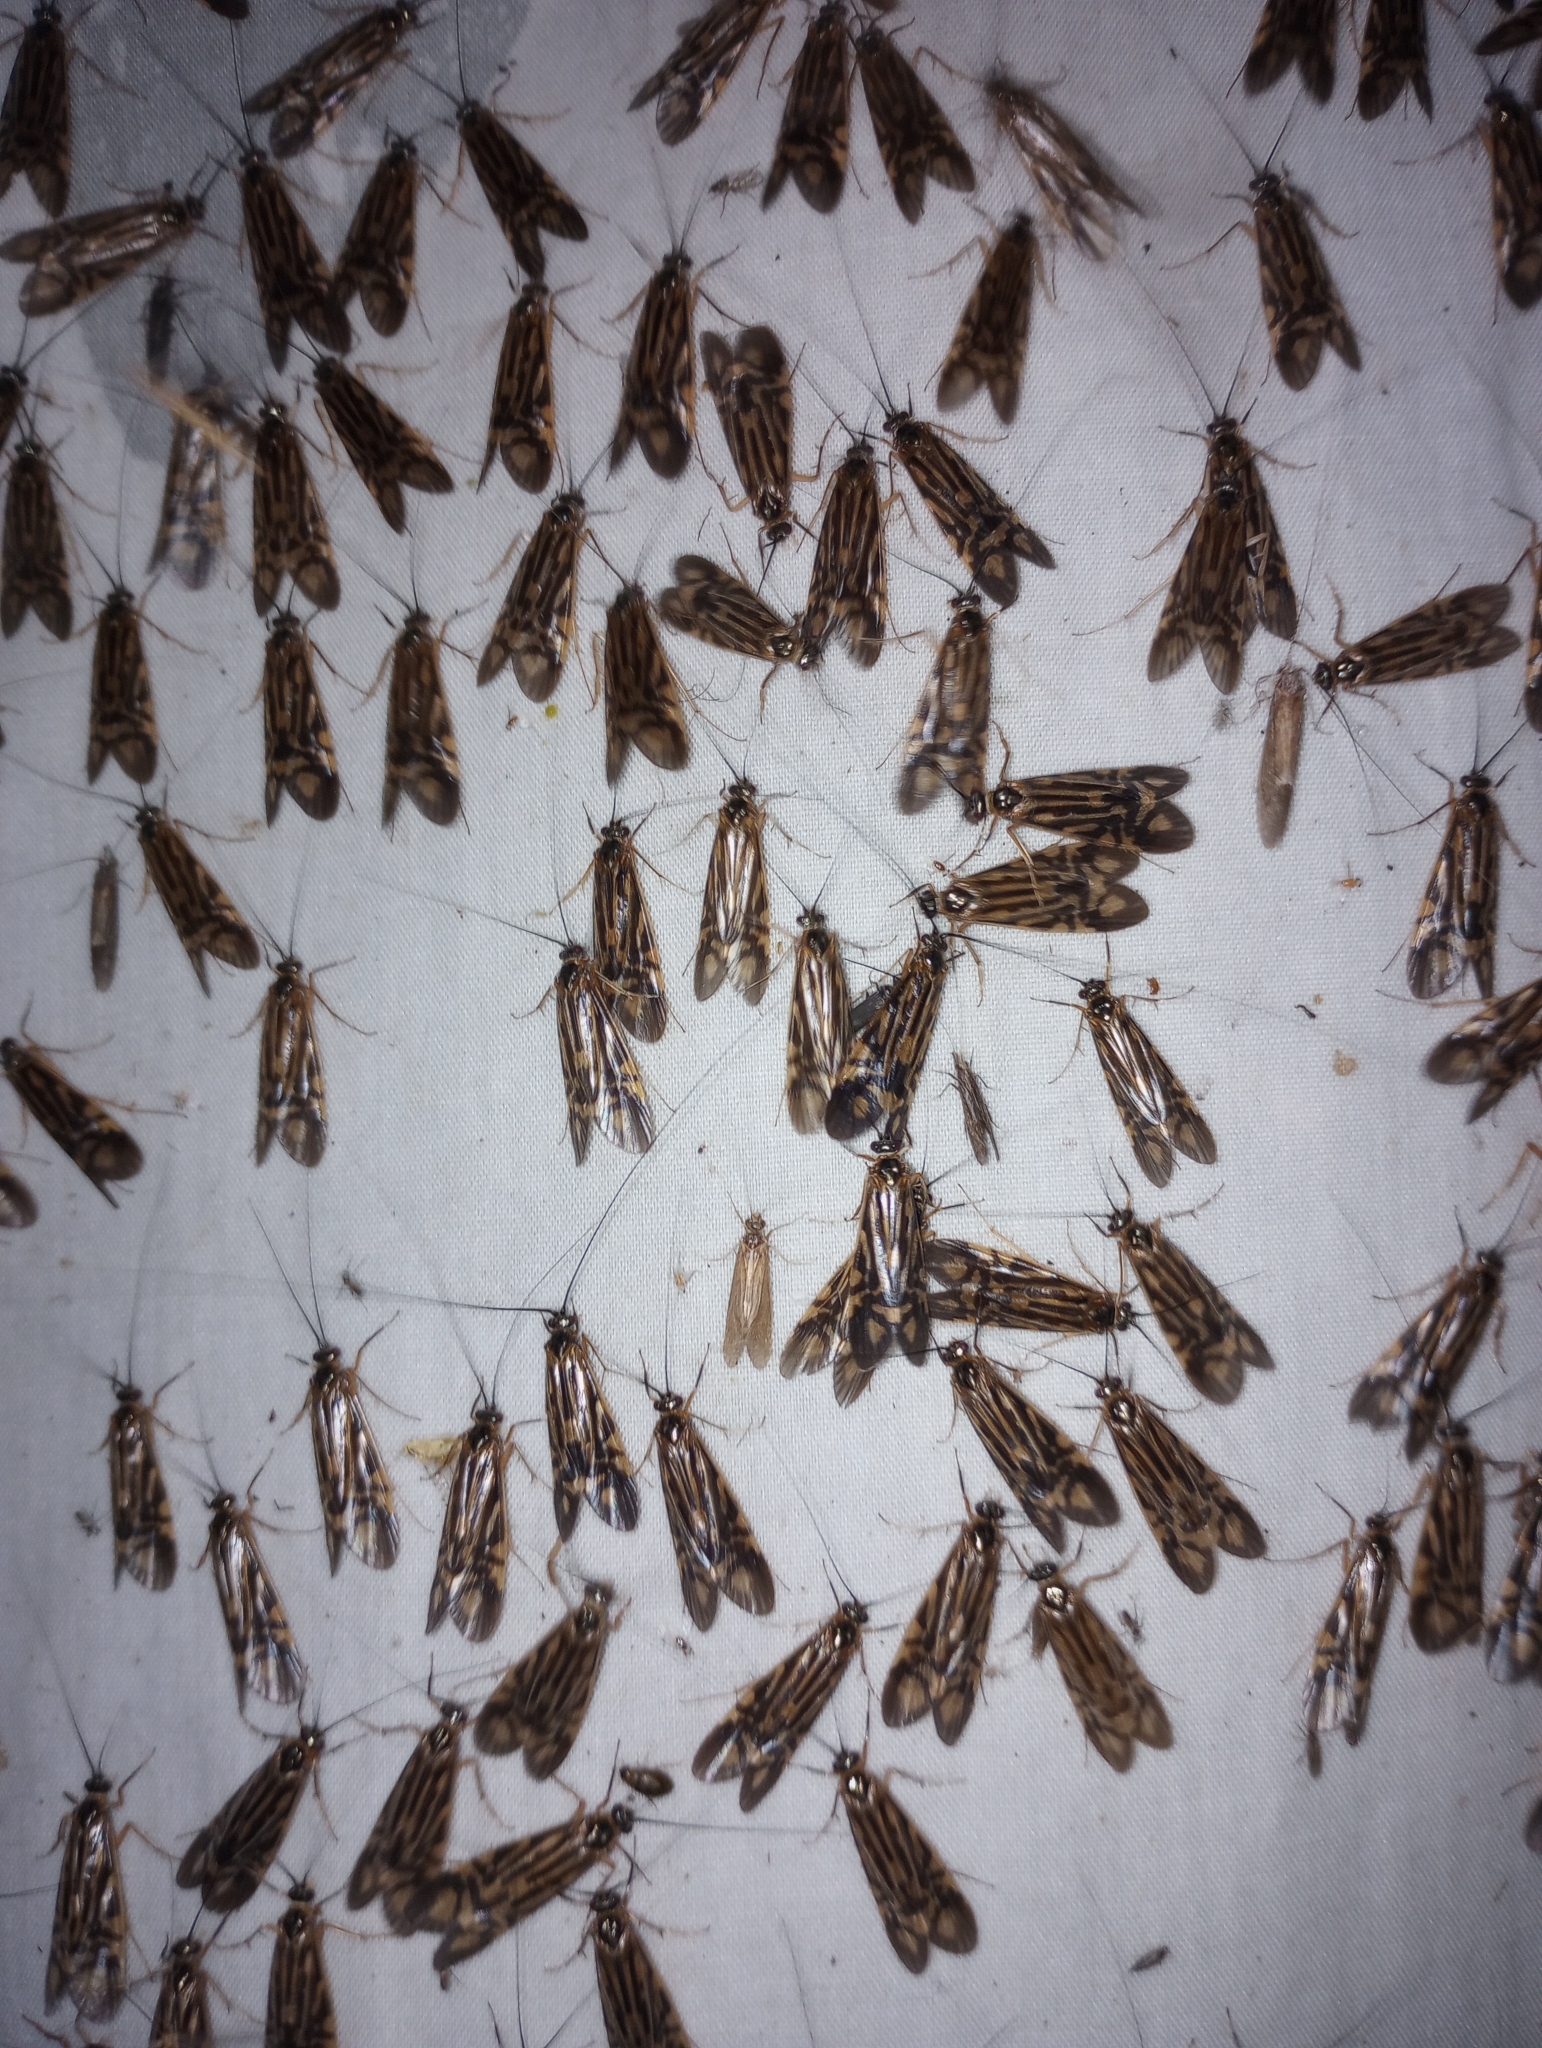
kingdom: Animalia
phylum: Arthropoda
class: Insecta
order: Trichoptera
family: Hydropsychidae
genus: Macrostemum
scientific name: Macrostemum zebratum
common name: Zebra caddisfly
